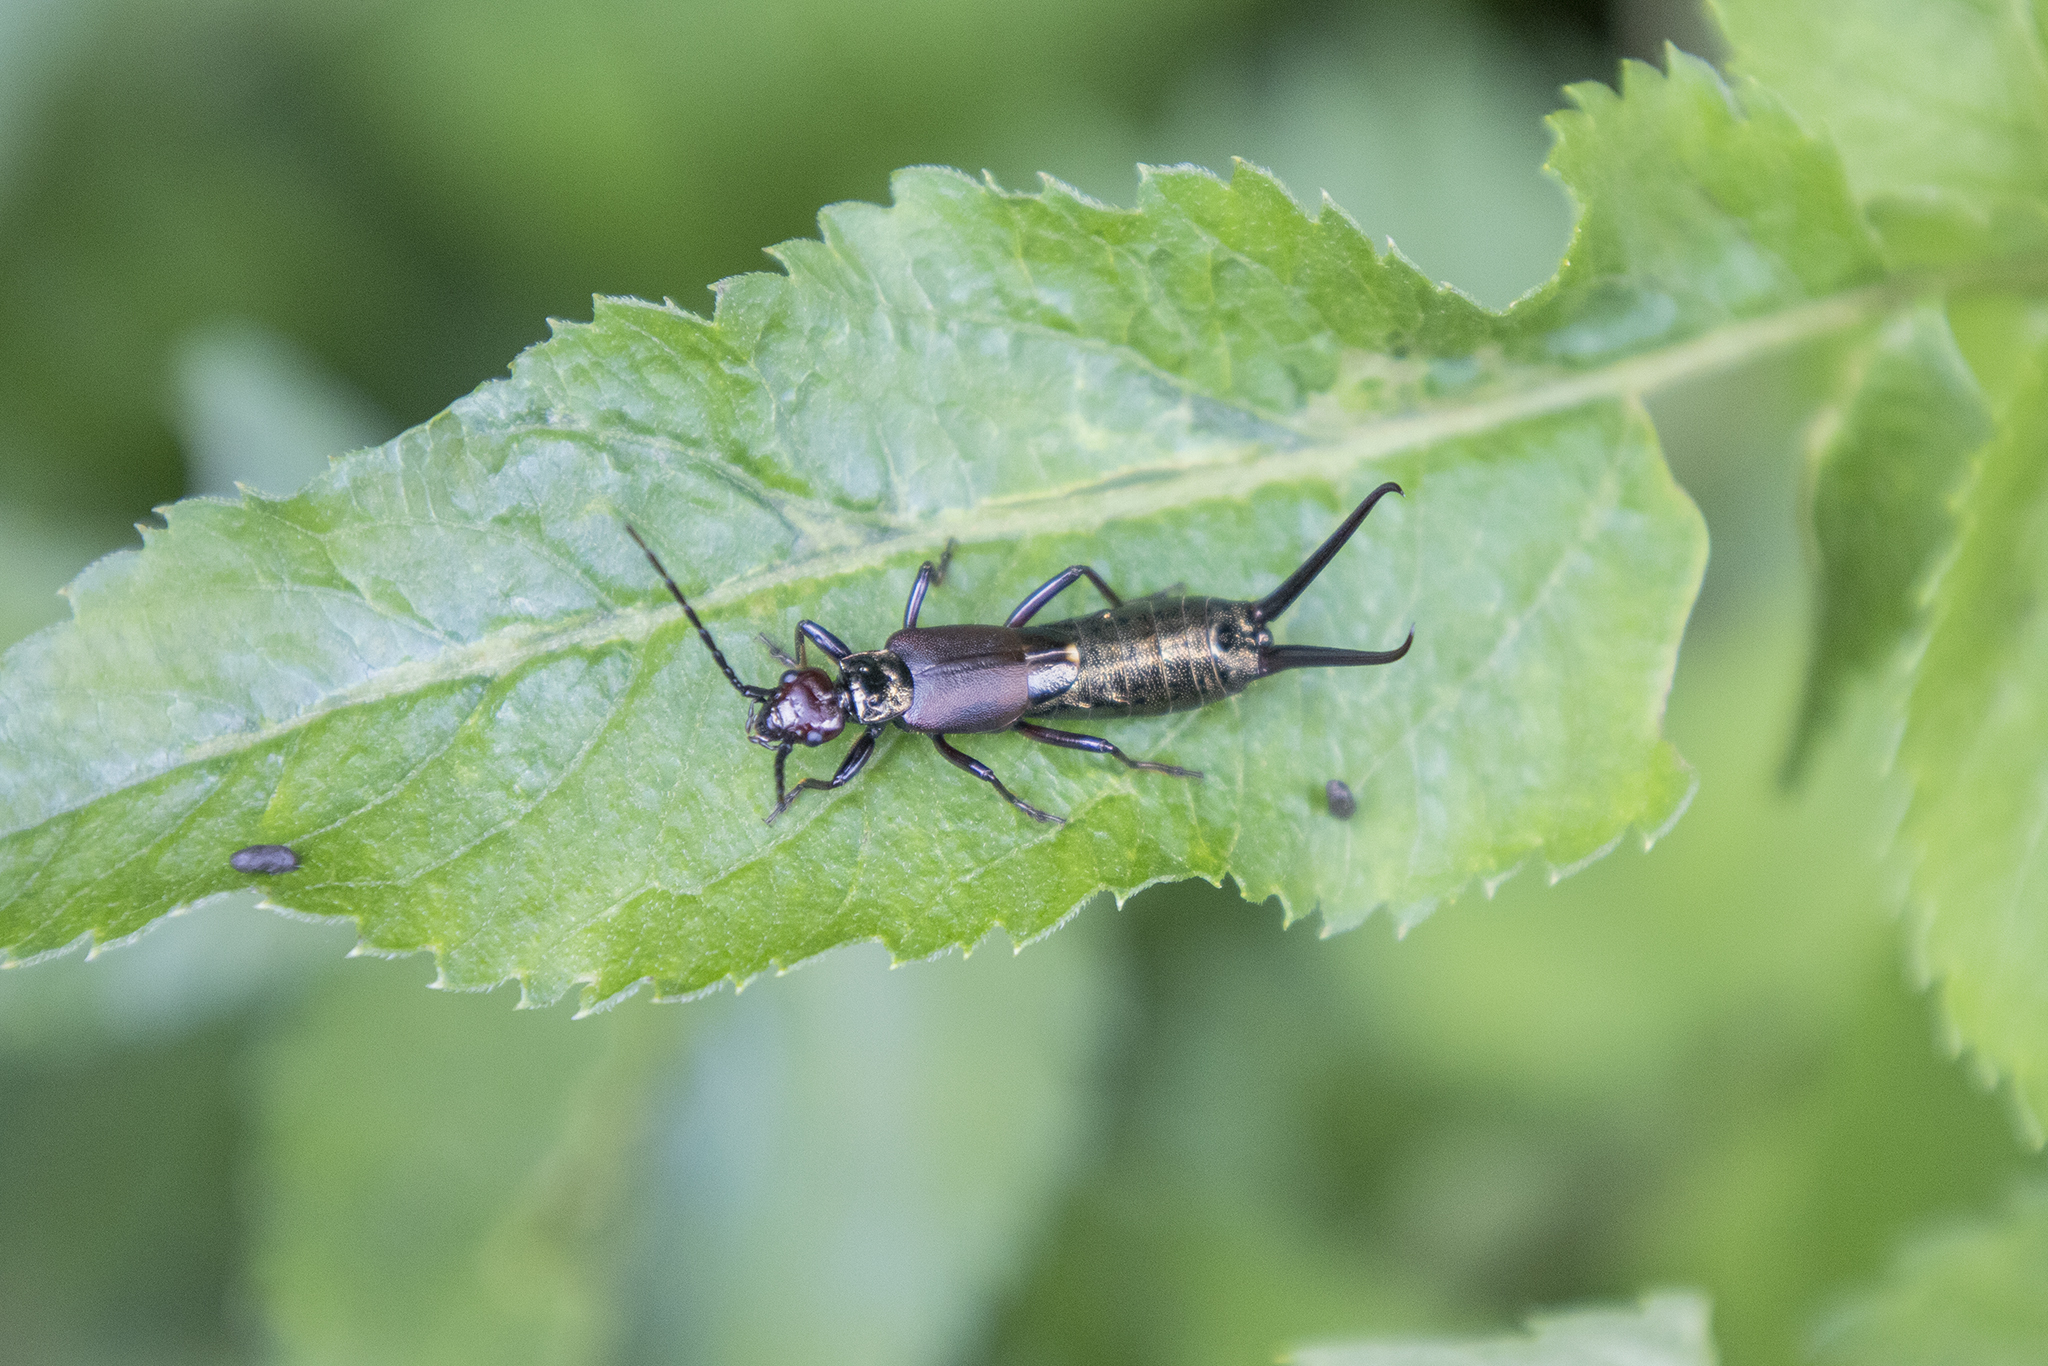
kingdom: Animalia
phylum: Arthropoda
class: Insecta
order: Dermaptera
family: Forficulidae
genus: Eudohrnia
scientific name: Eudohrnia metallica
